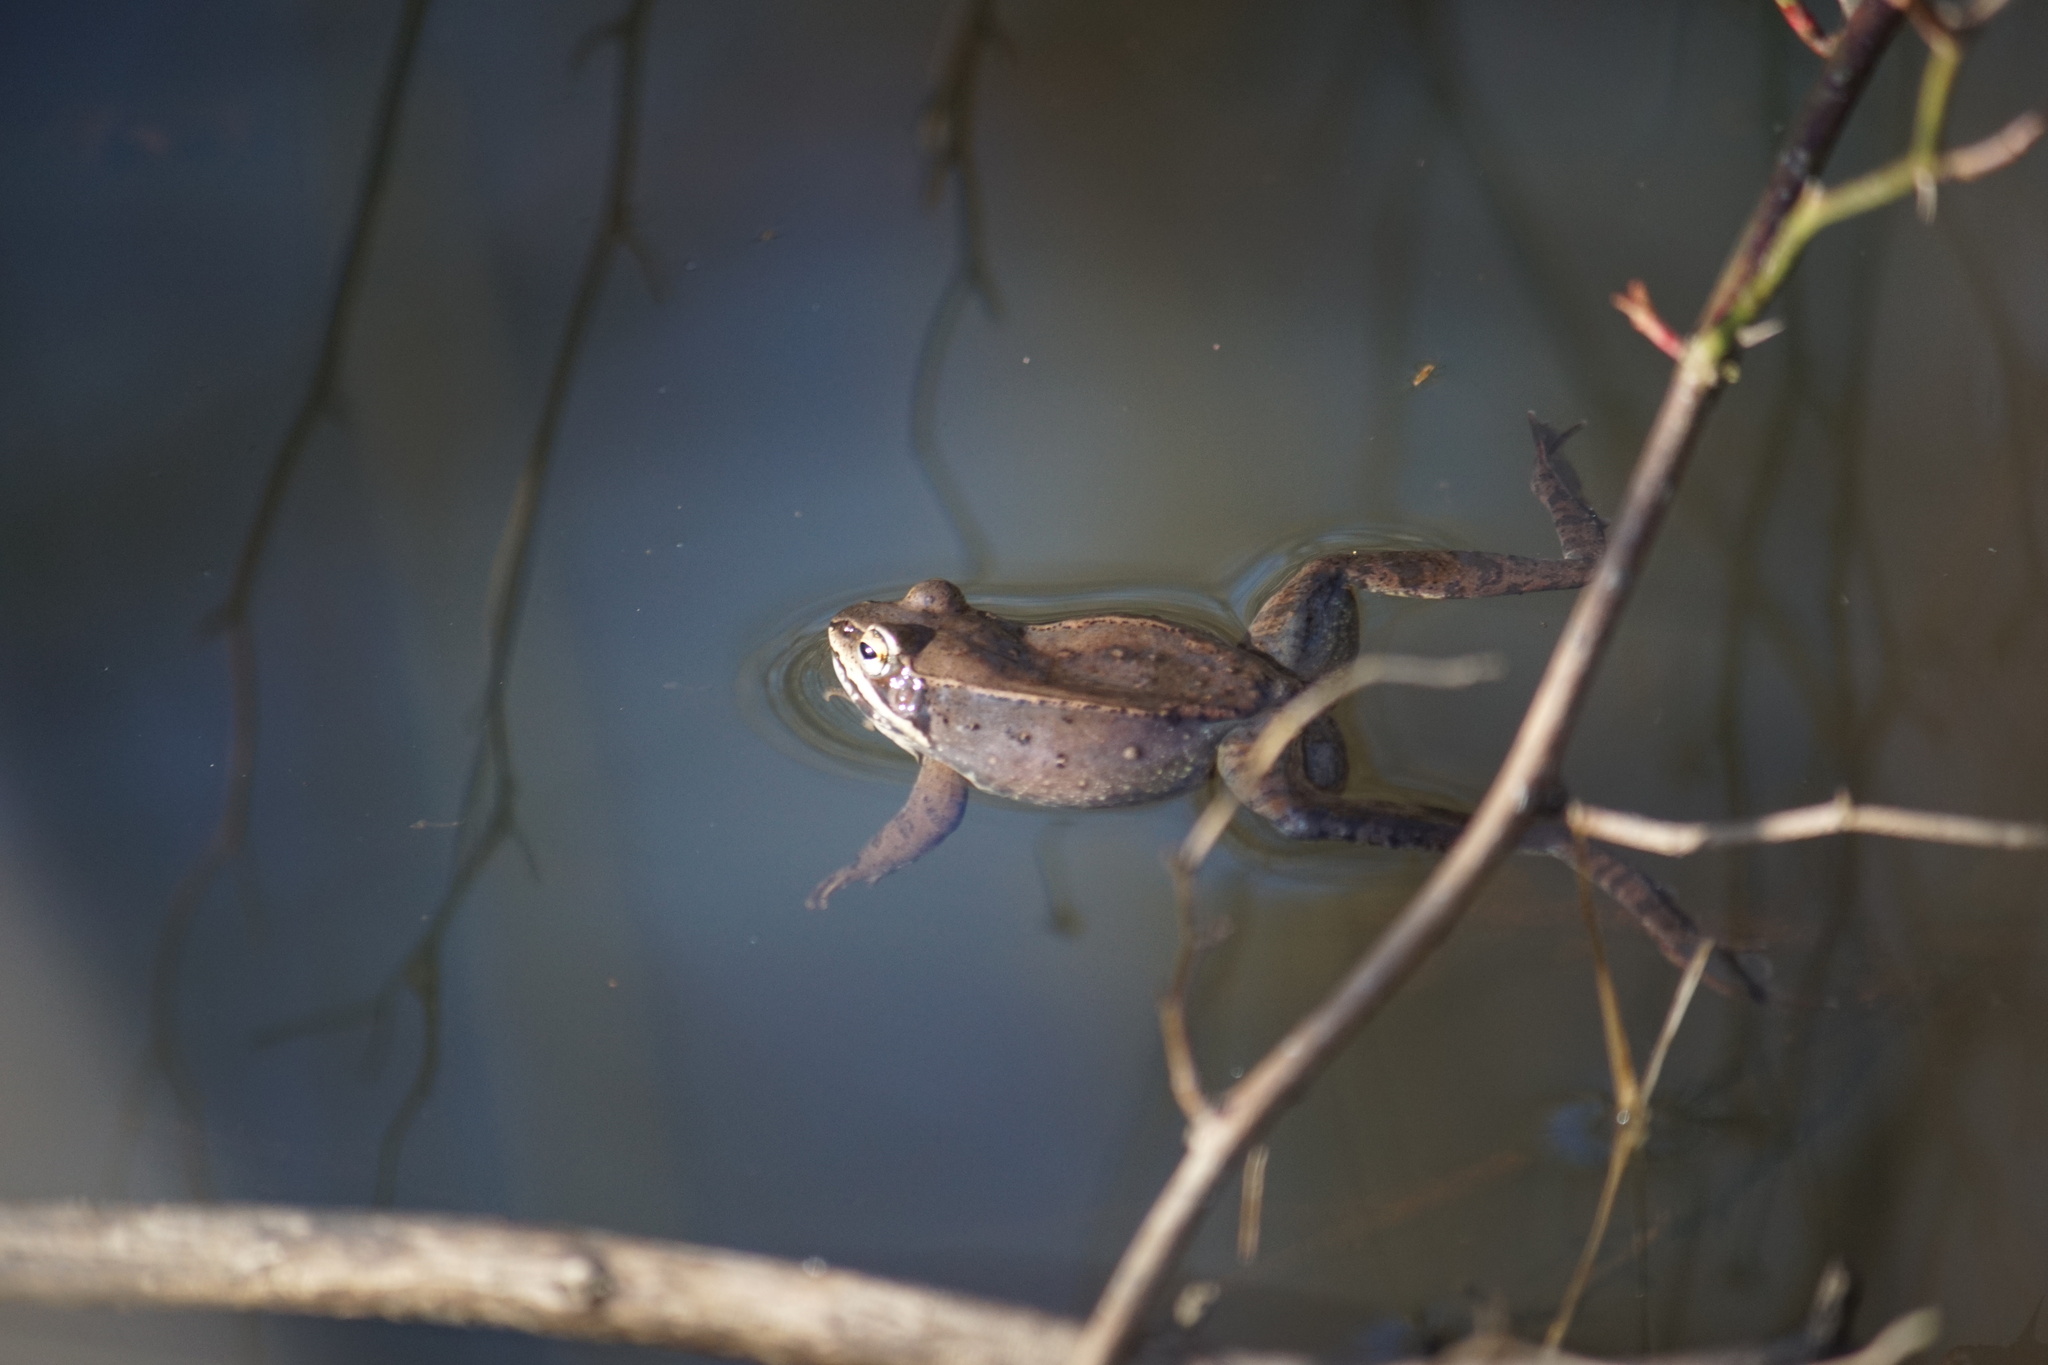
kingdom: Animalia
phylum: Chordata
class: Amphibia
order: Anura
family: Ranidae
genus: Lithobates
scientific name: Lithobates sylvaticus
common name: Wood frog
